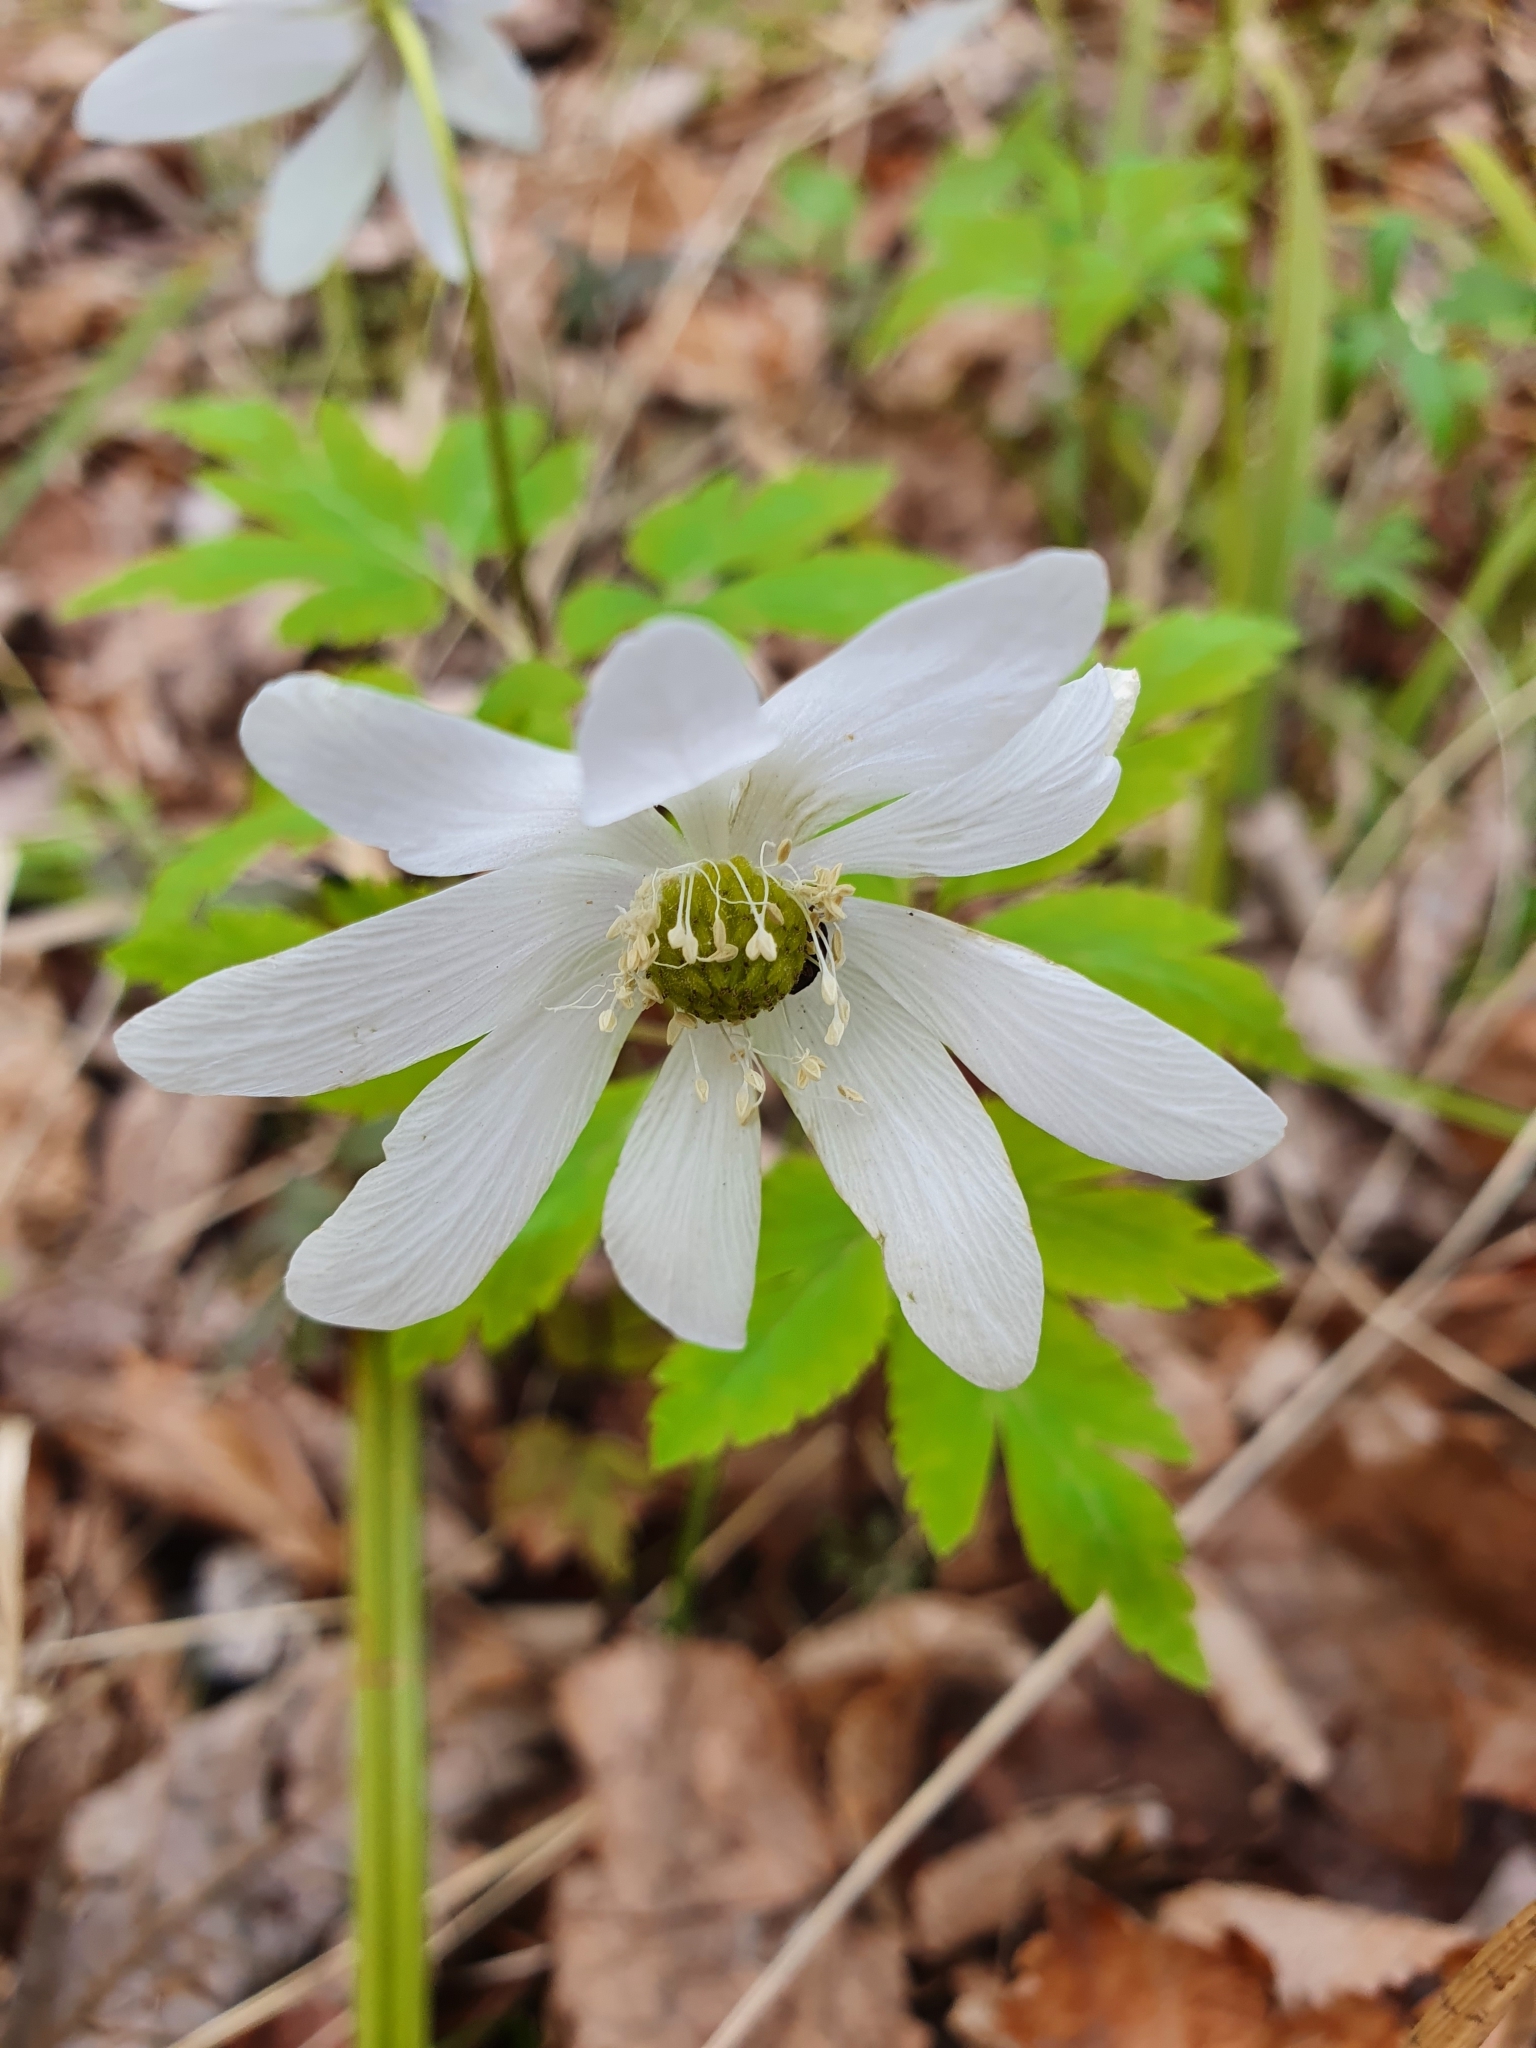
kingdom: Plantae
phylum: Tracheophyta
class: Magnoliopsida
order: Ranunculales
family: Ranunculaceae
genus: Anemone
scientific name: Anemone altaica
